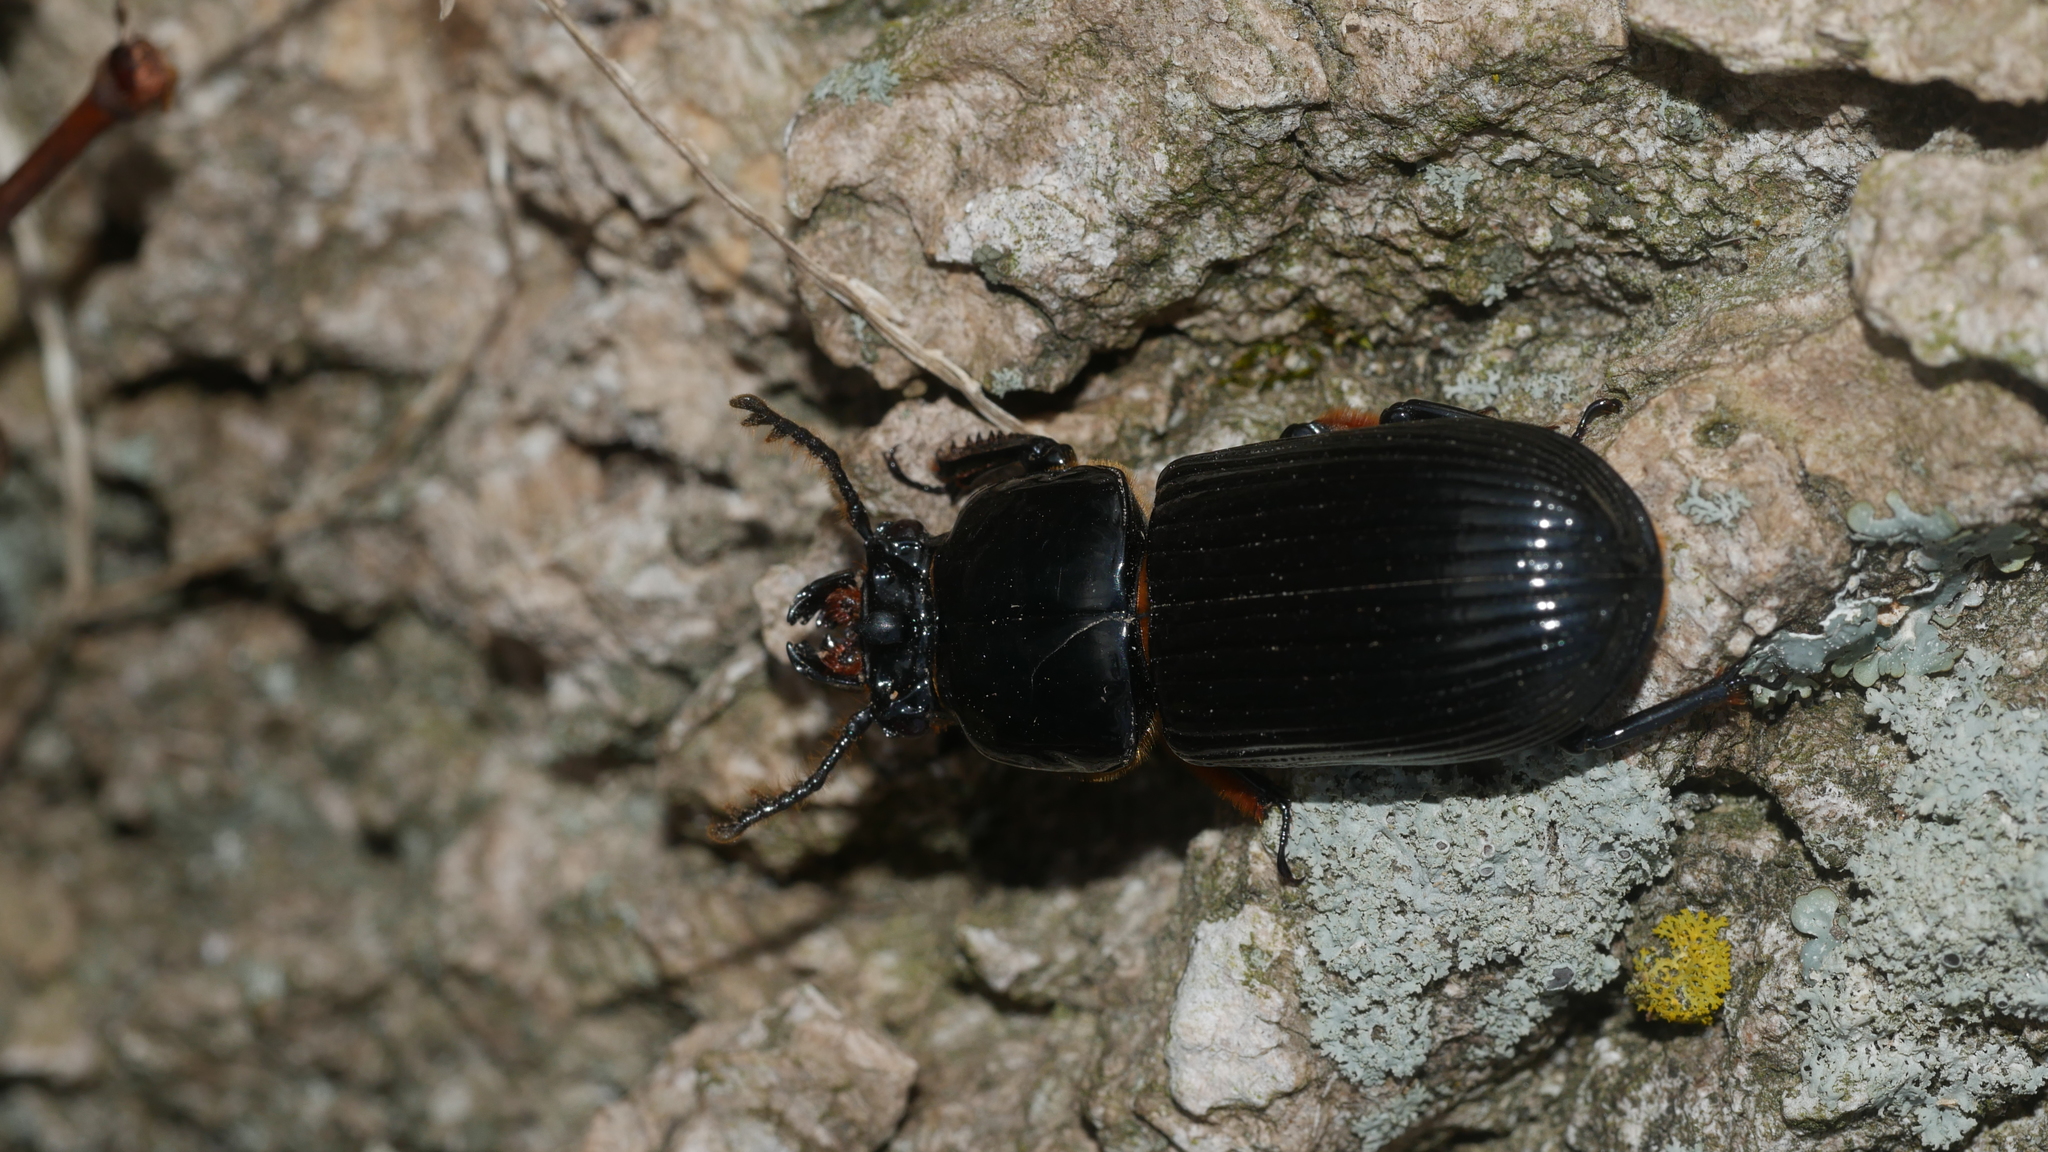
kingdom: Animalia
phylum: Arthropoda
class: Insecta
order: Coleoptera
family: Passalidae
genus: Odontotaenius
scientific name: Odontotaenius disjunctus
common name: Patent leather beetle
